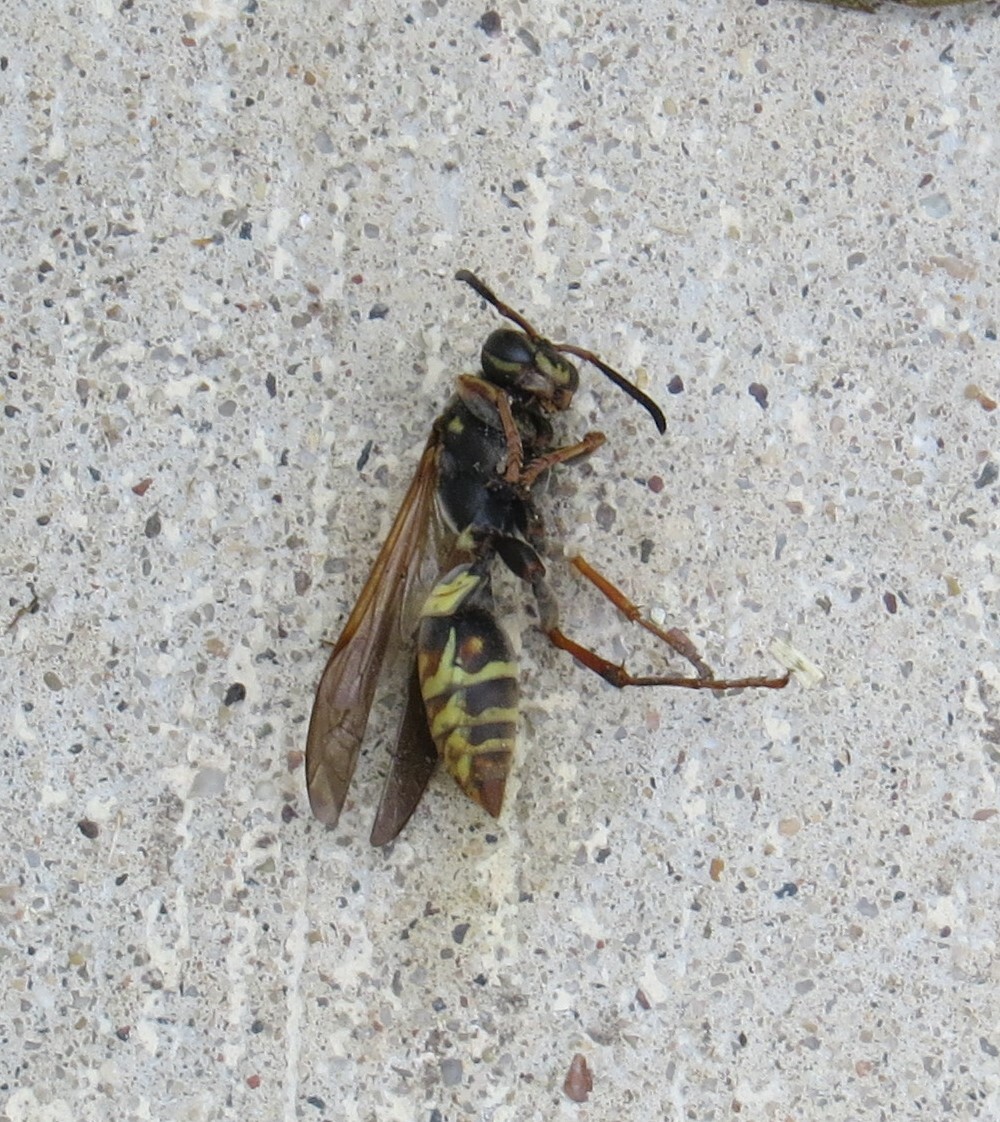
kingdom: Animalia
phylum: Arthropoda
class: Insecta
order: Hymenoptera
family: Eumenidae
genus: Polistes
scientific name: Polistes fuscatus
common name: Dark paper wasp
